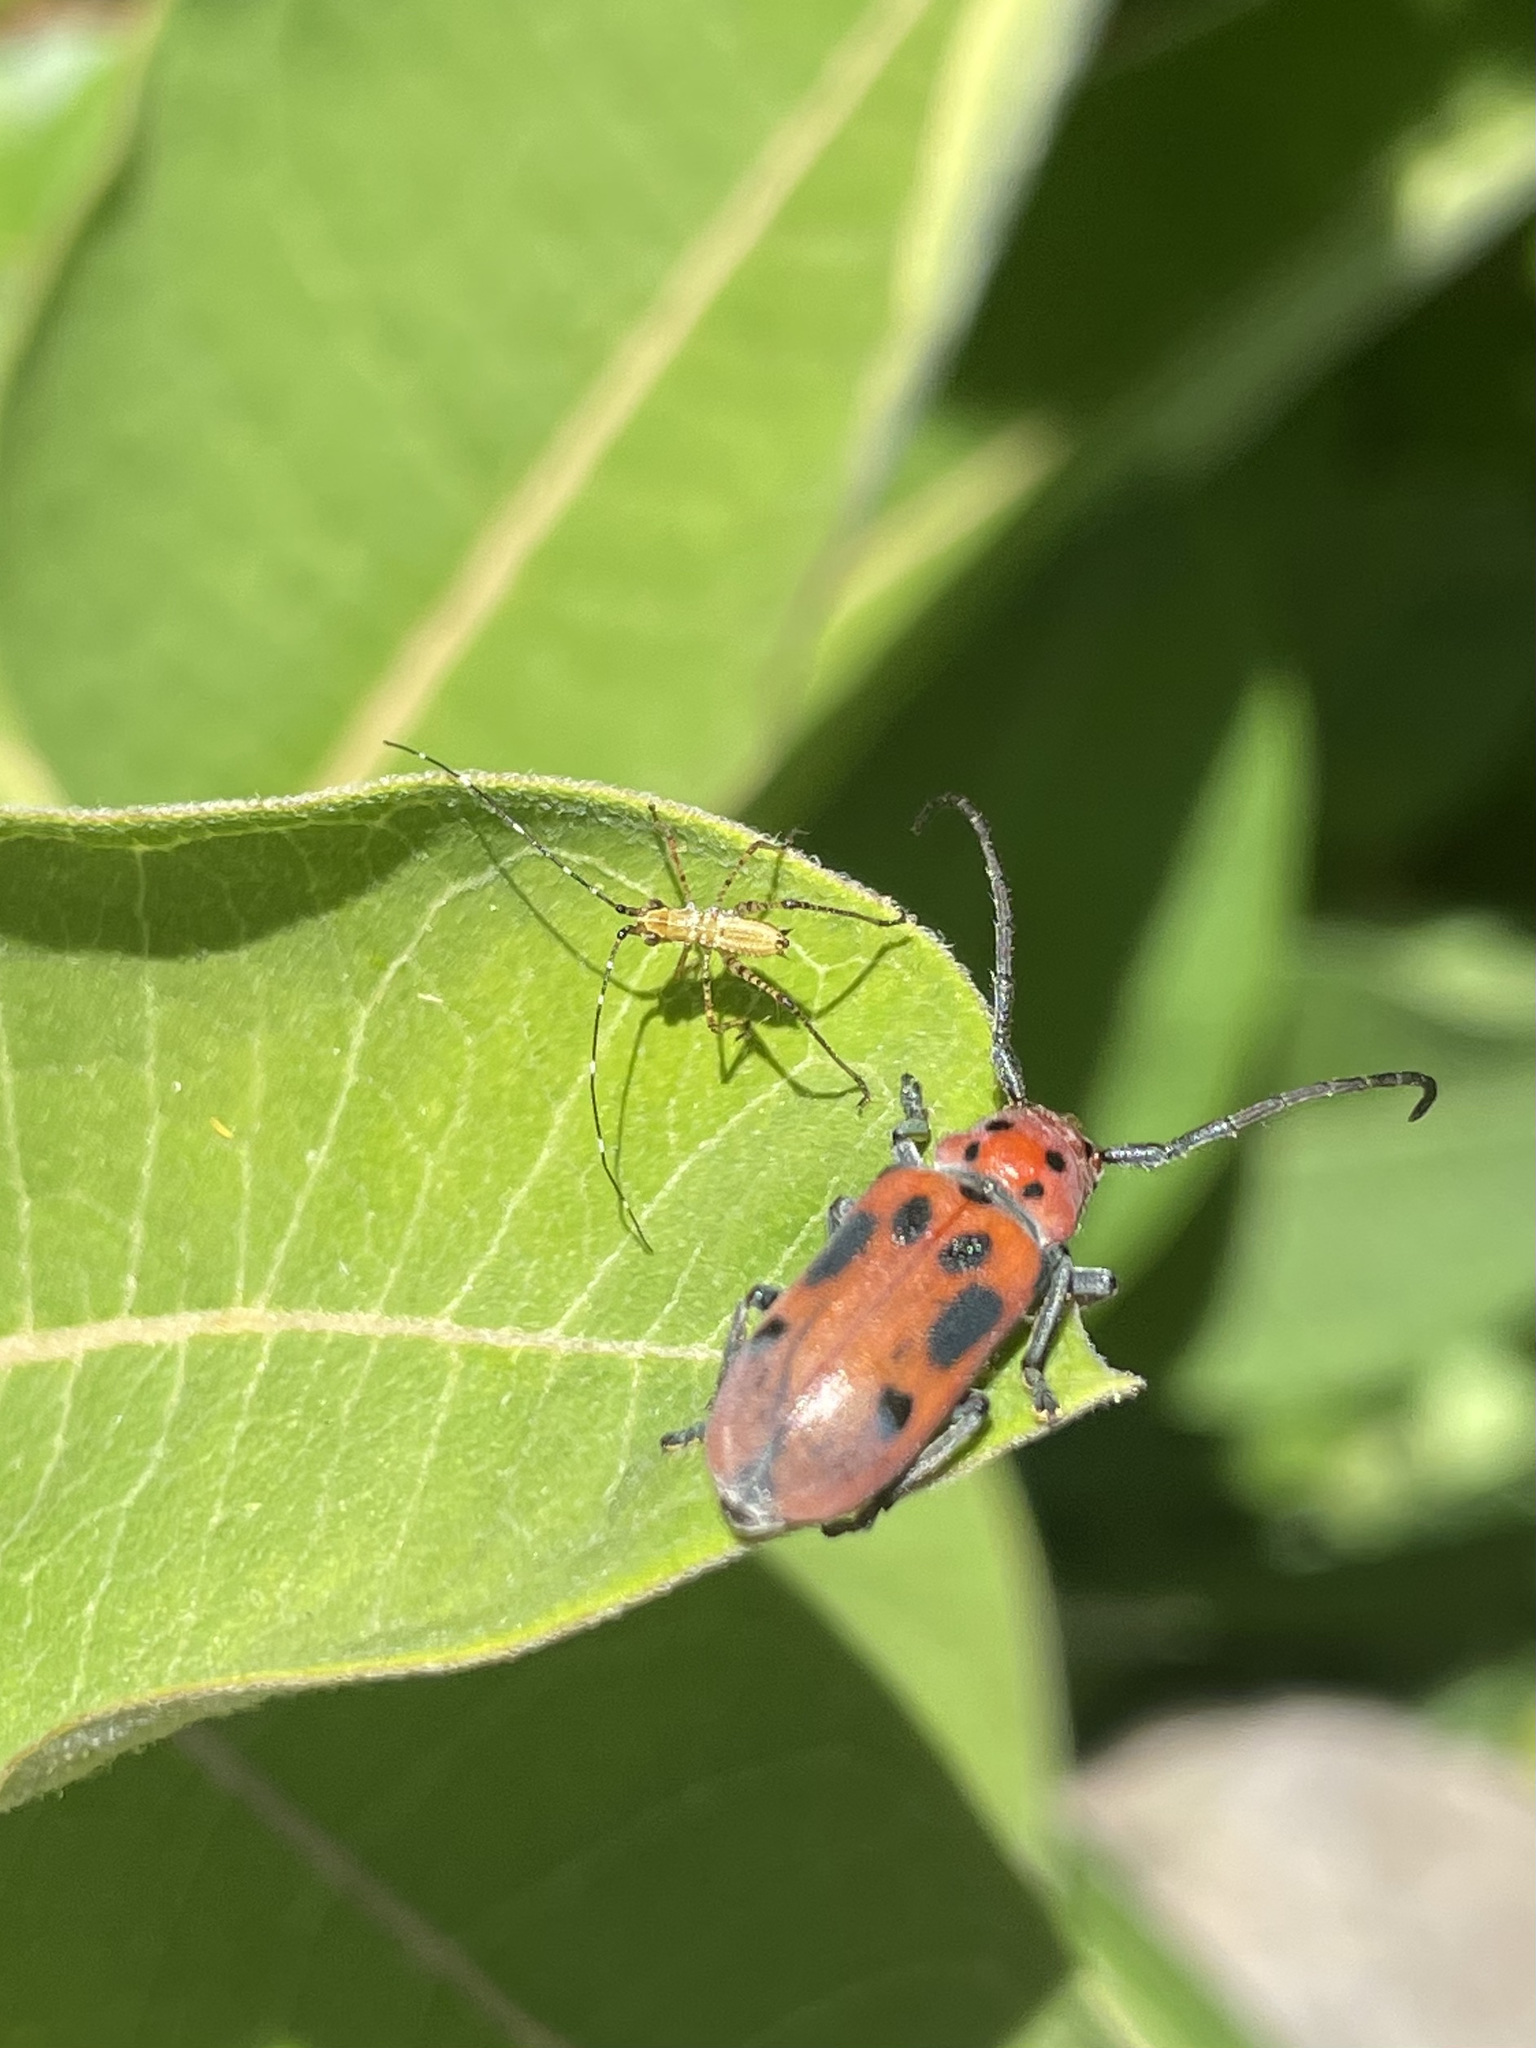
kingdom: Animalia
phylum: Arthropoda
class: Insecta
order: Coleoptera
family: Cerambycidae
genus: Tetraopes
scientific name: Tetraopes tetrophthalmus
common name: Red milkweed beetle
